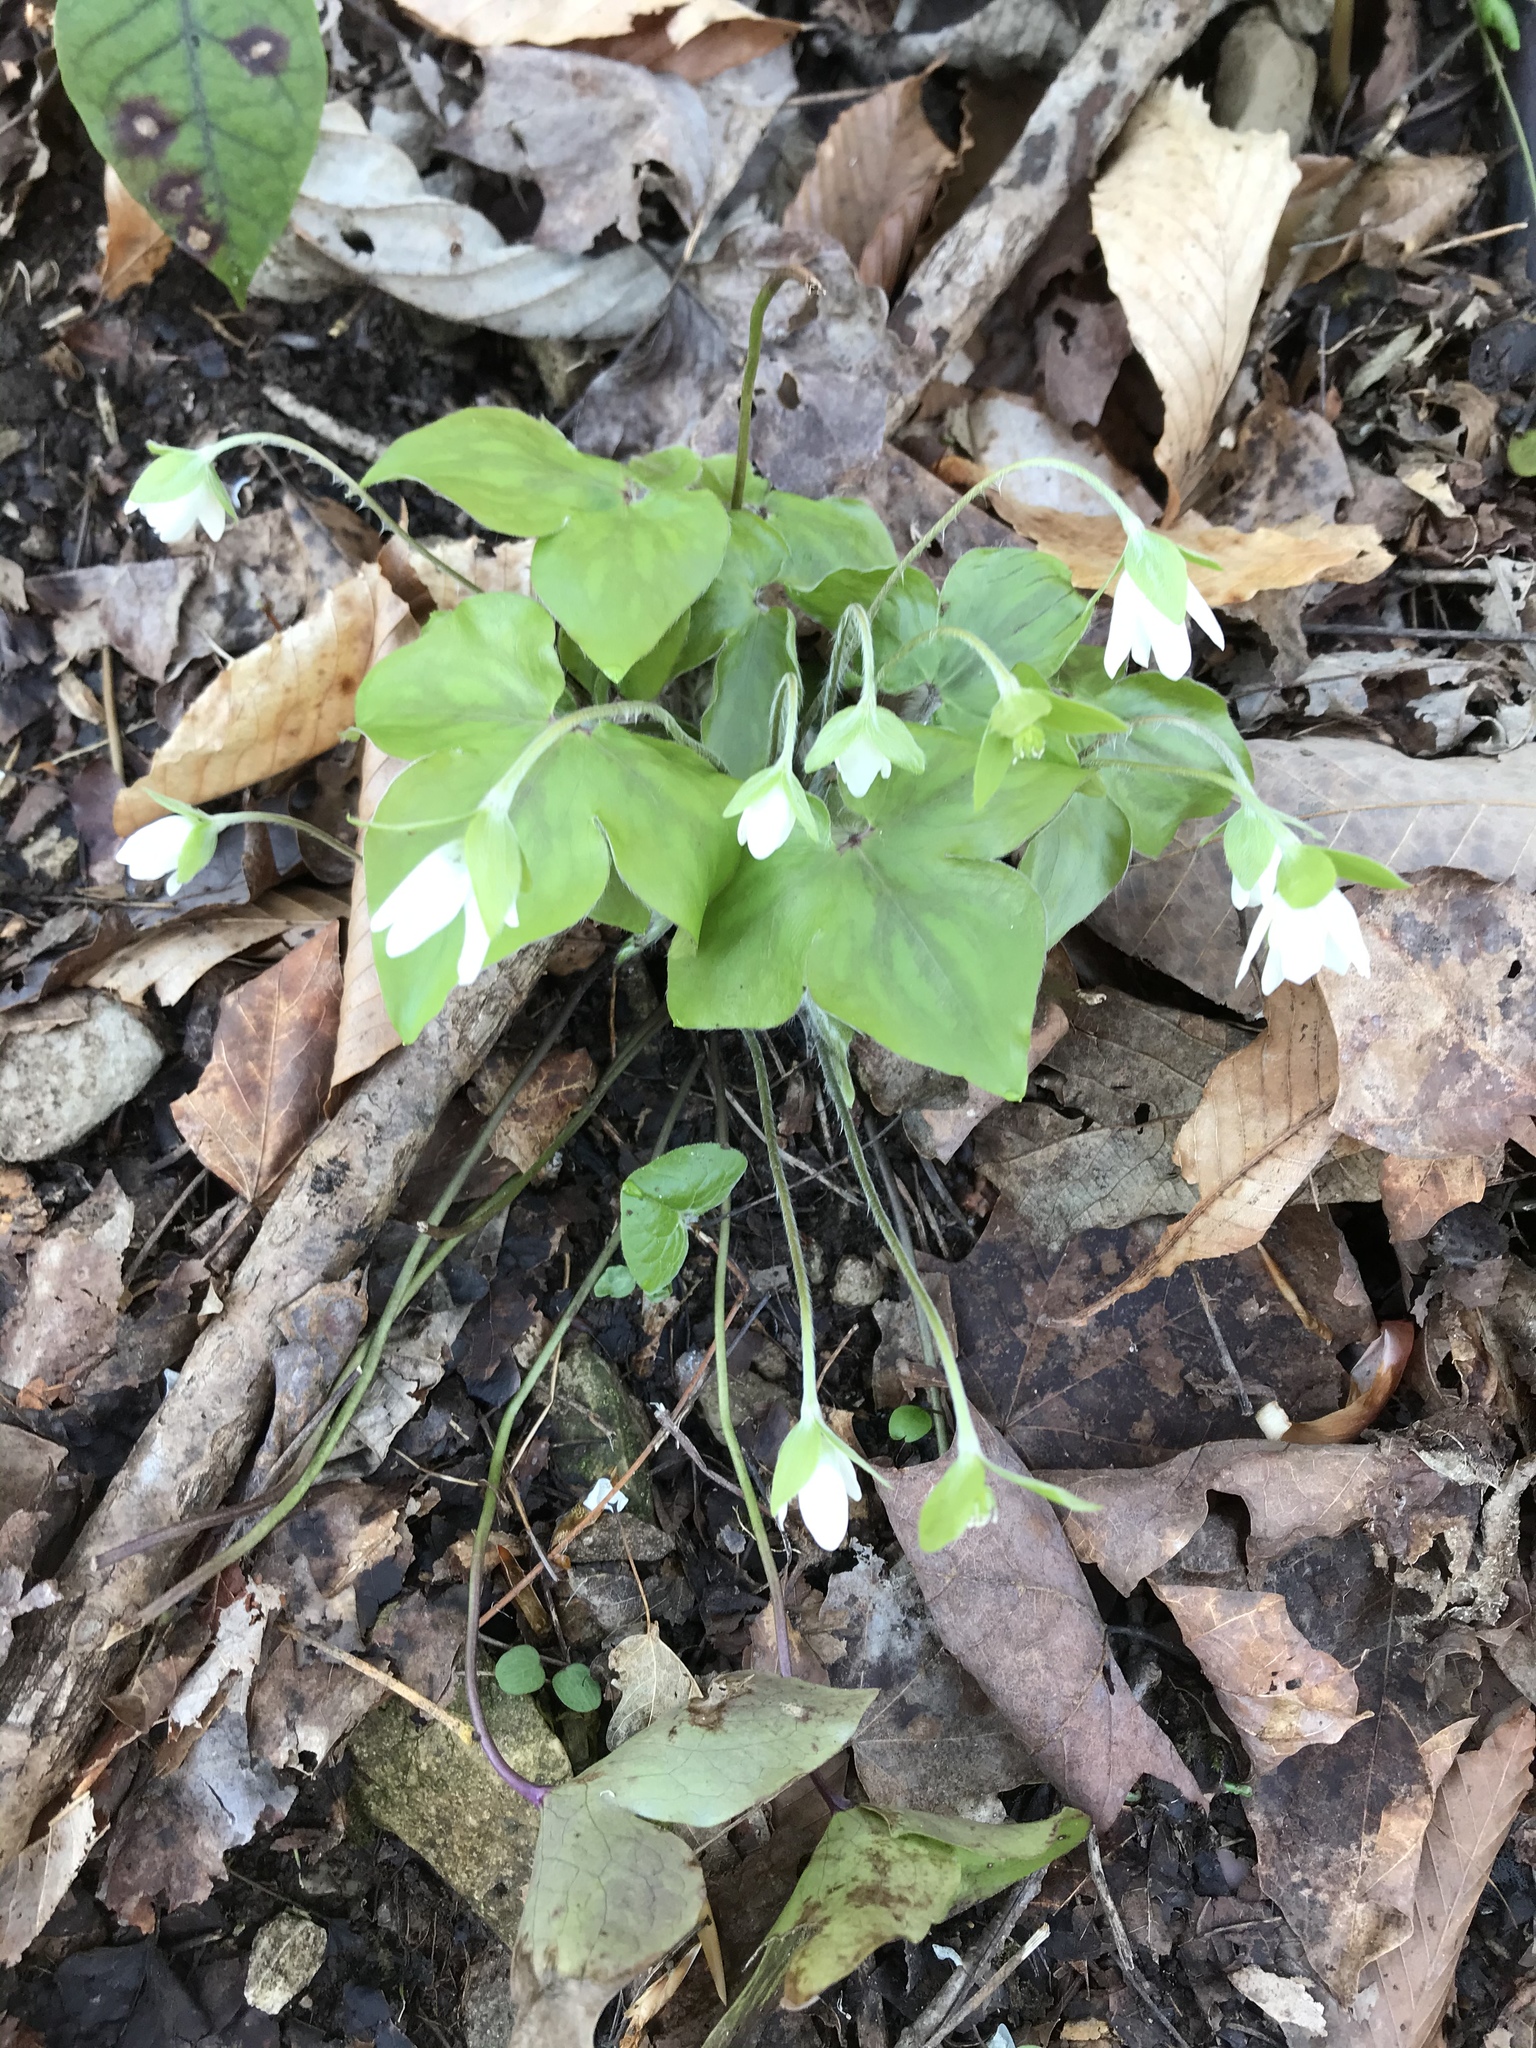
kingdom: Plantae
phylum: Tracheophyta
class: Magnoliopsida
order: Ranunculales
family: Ranunculaceae
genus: Hepatica
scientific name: Hepatica acutiloba
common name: Sharp-lobed hepatica
